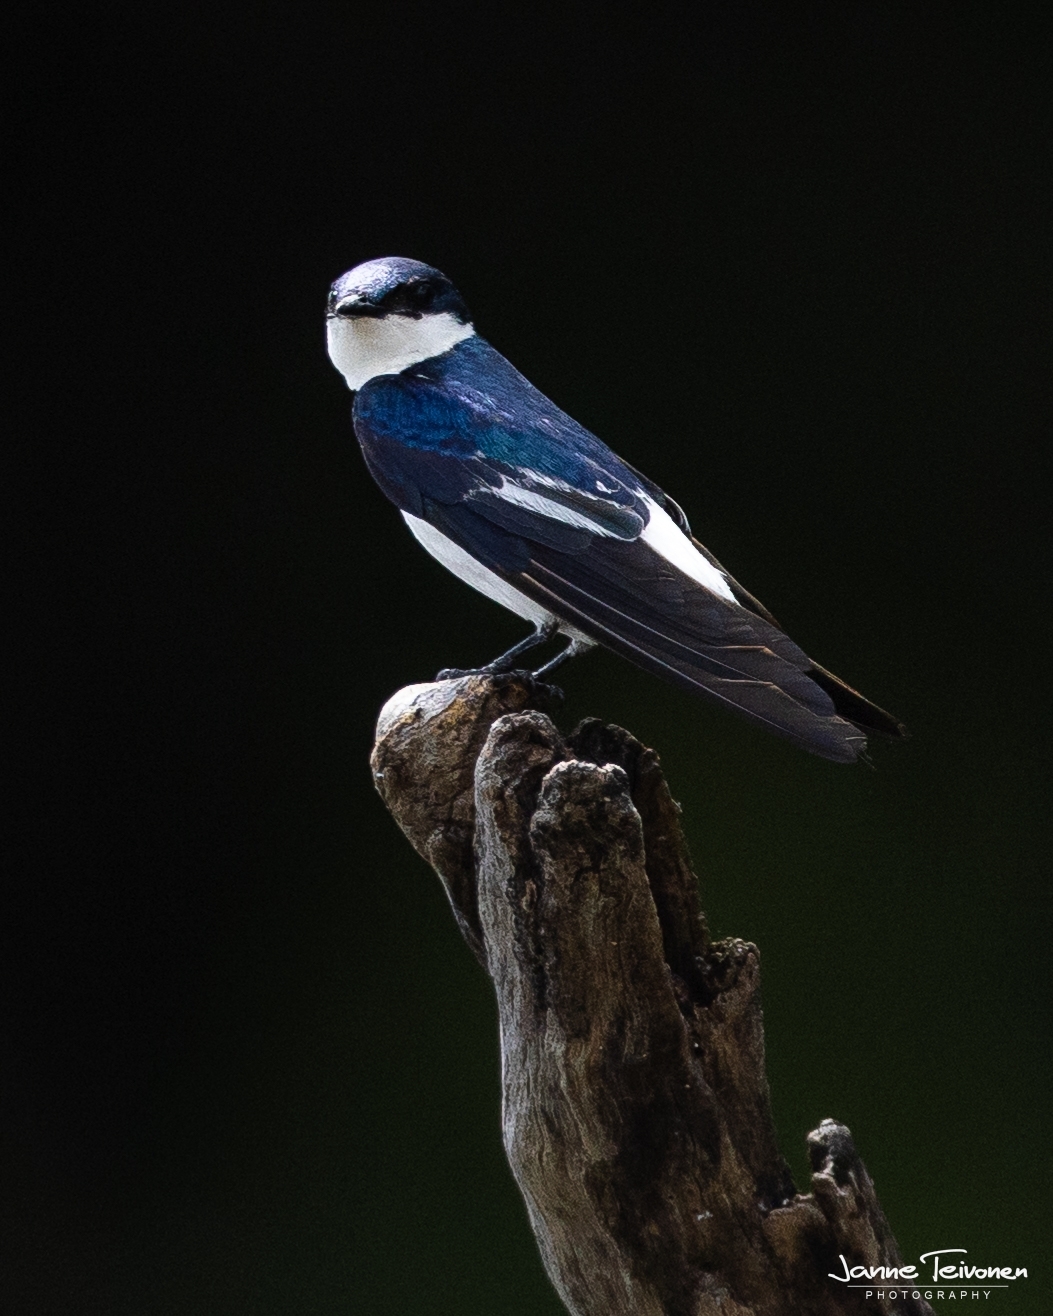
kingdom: Animalia
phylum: Chordata
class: Aves
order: Passeriformes
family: Hirundinidae
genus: Tachycineta
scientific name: Tachycineta albiventer
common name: White-winged swallow
